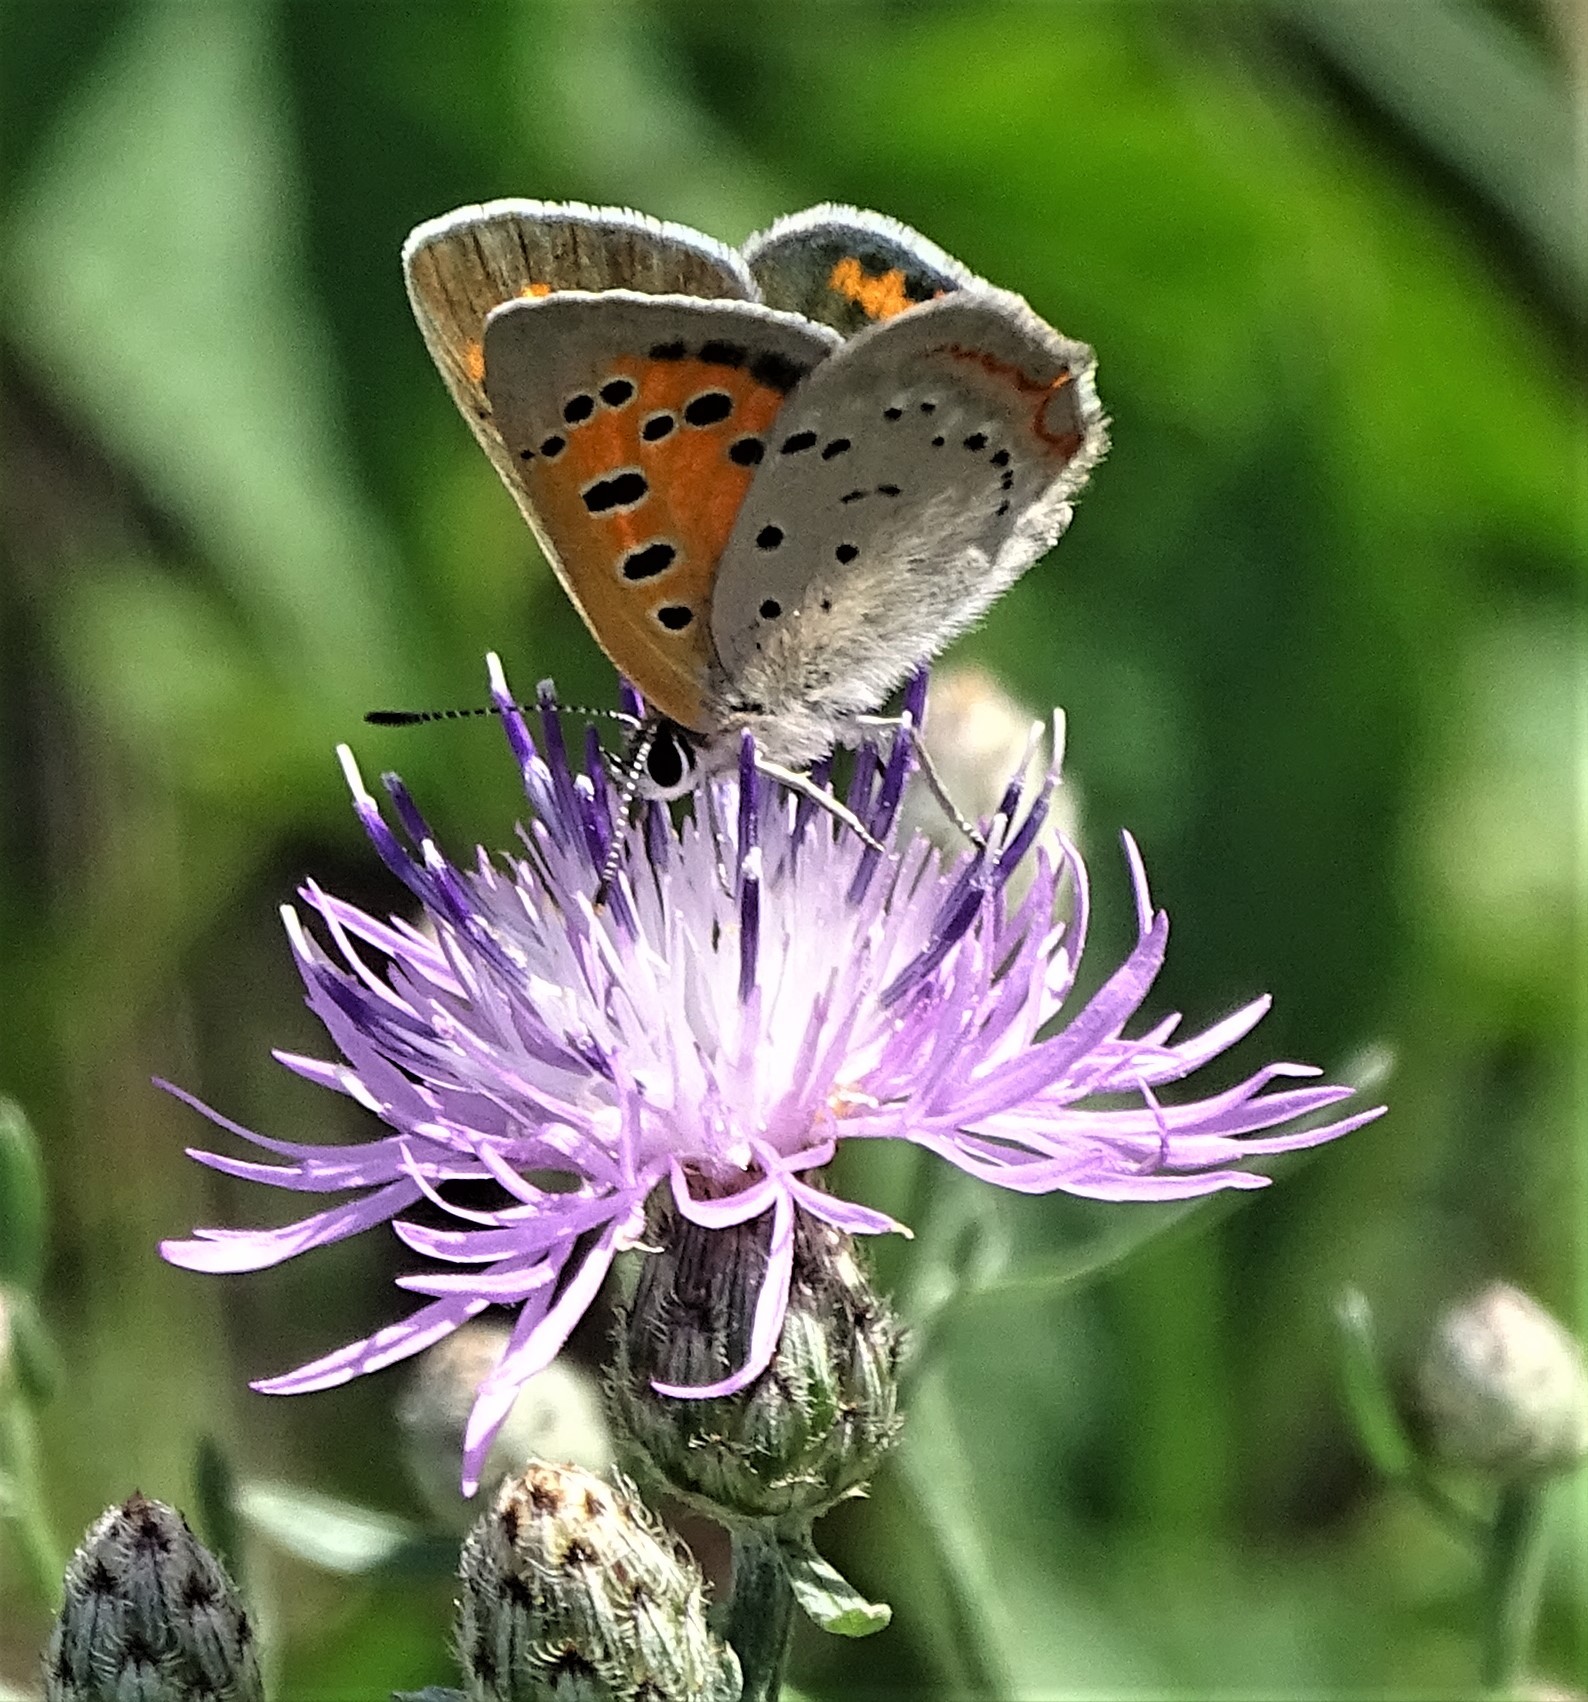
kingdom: Animalia
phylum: Arthropoda
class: Insecta
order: Lepidoptera
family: Lycaenidae
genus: Lycaena
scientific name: Lycaena hypophlaeas
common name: American copper
